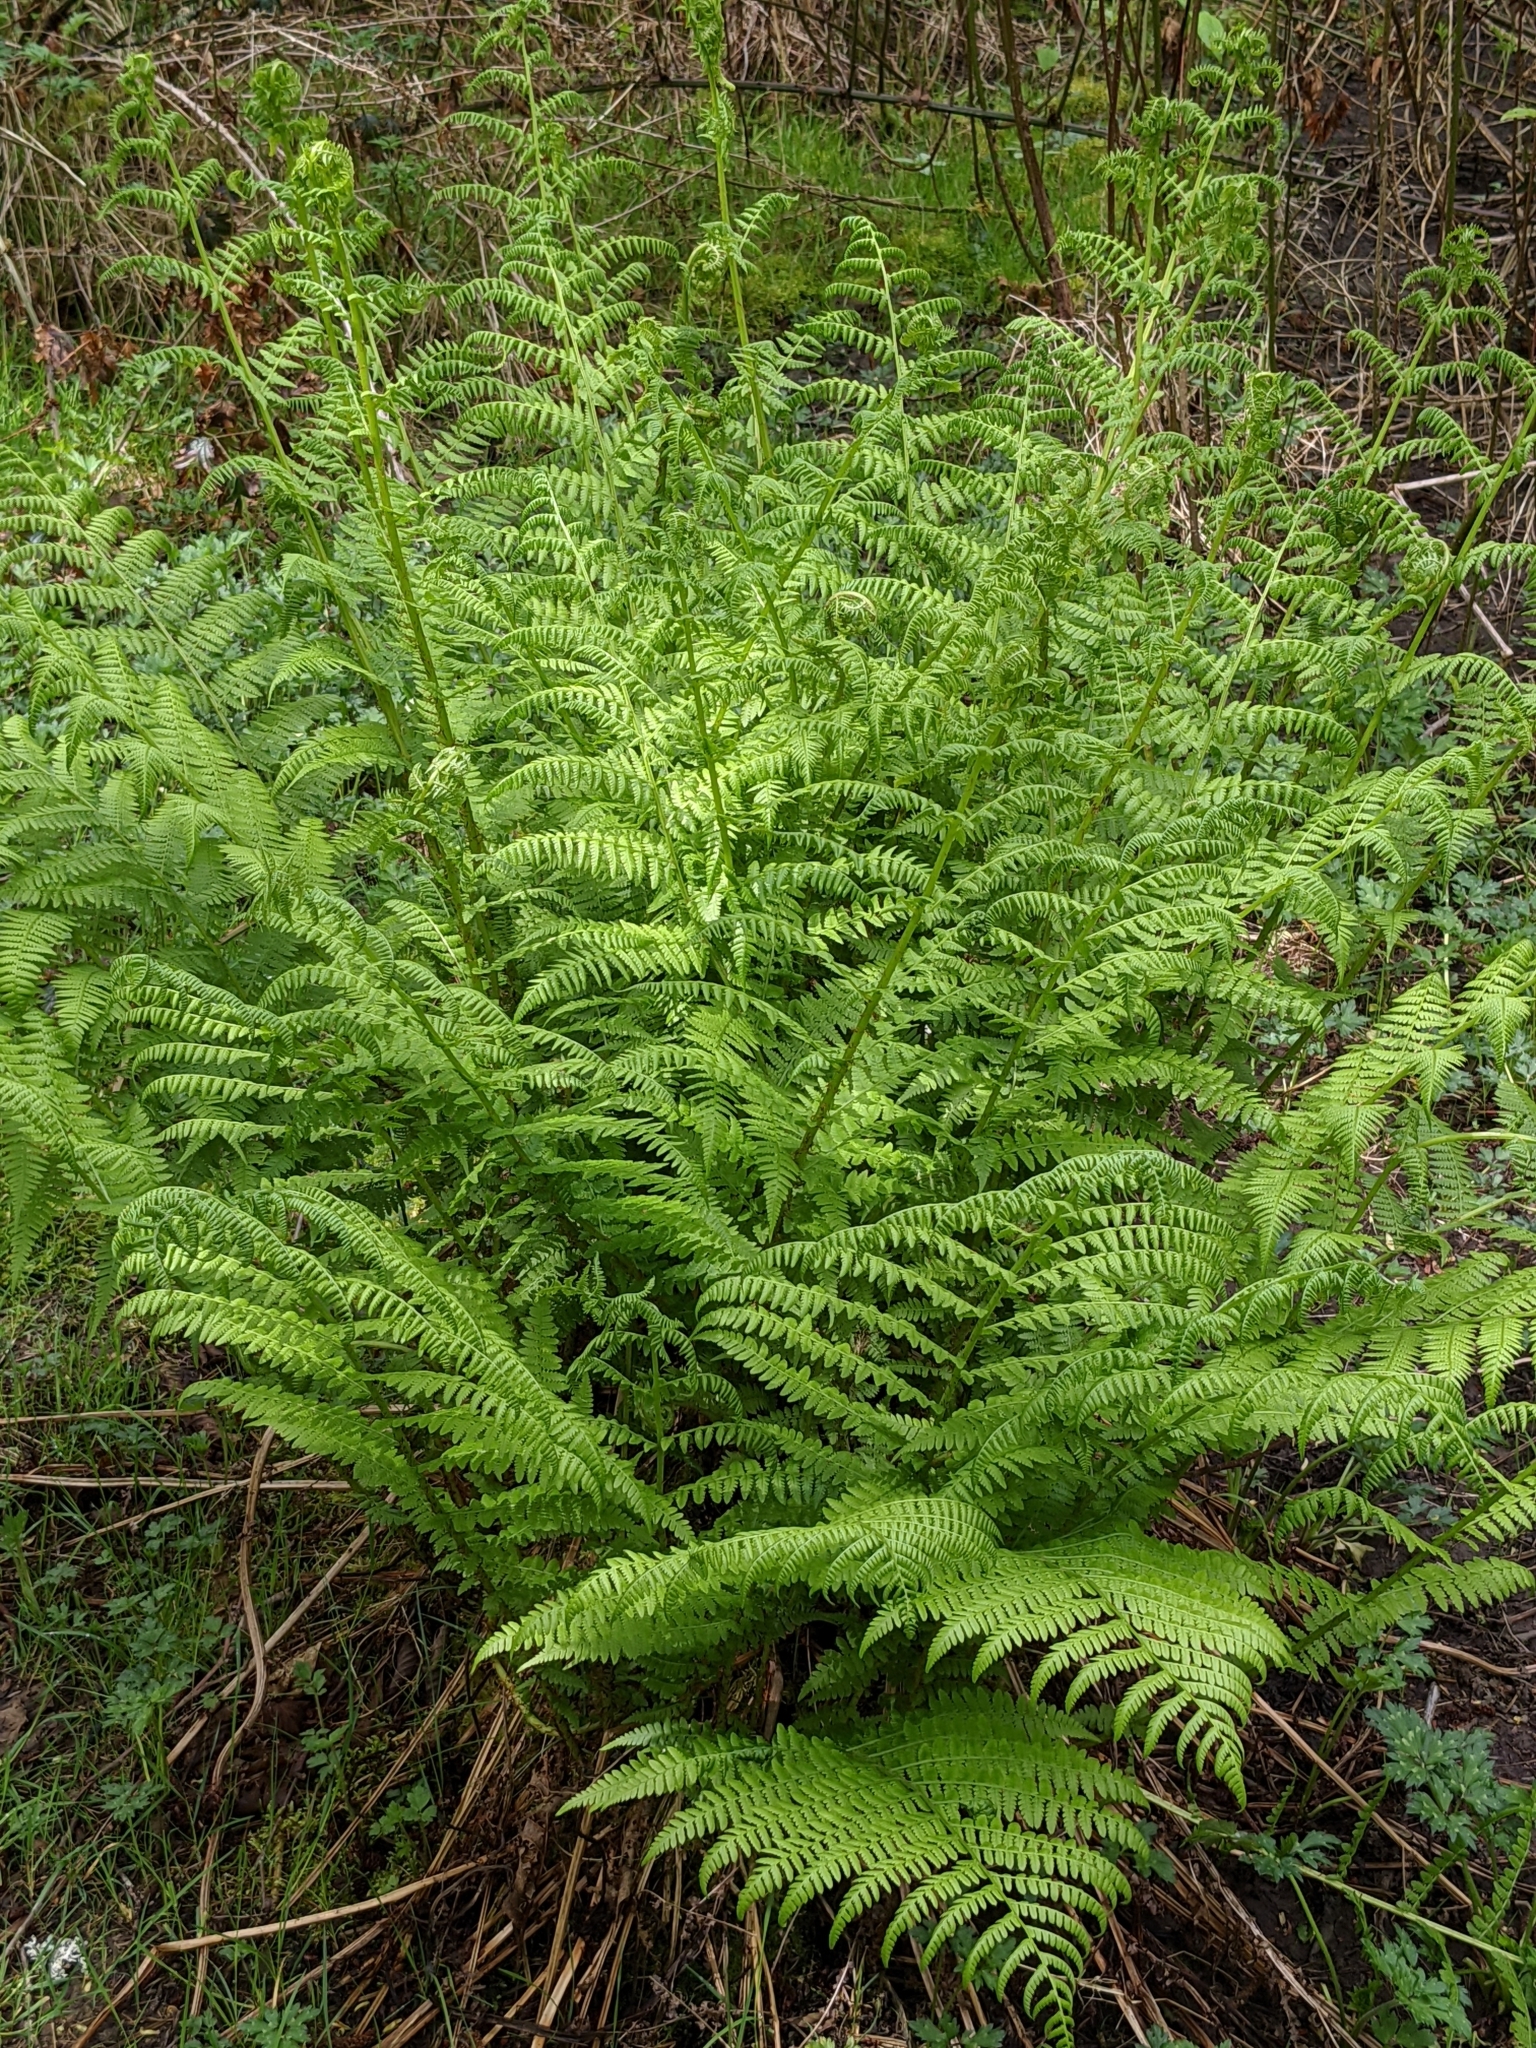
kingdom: Plantae
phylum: Tracheophyta
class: Polypodiopsida
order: Polypodiales
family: Athyriaceae
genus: Athyrium
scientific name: Athyrium cyclosorum
